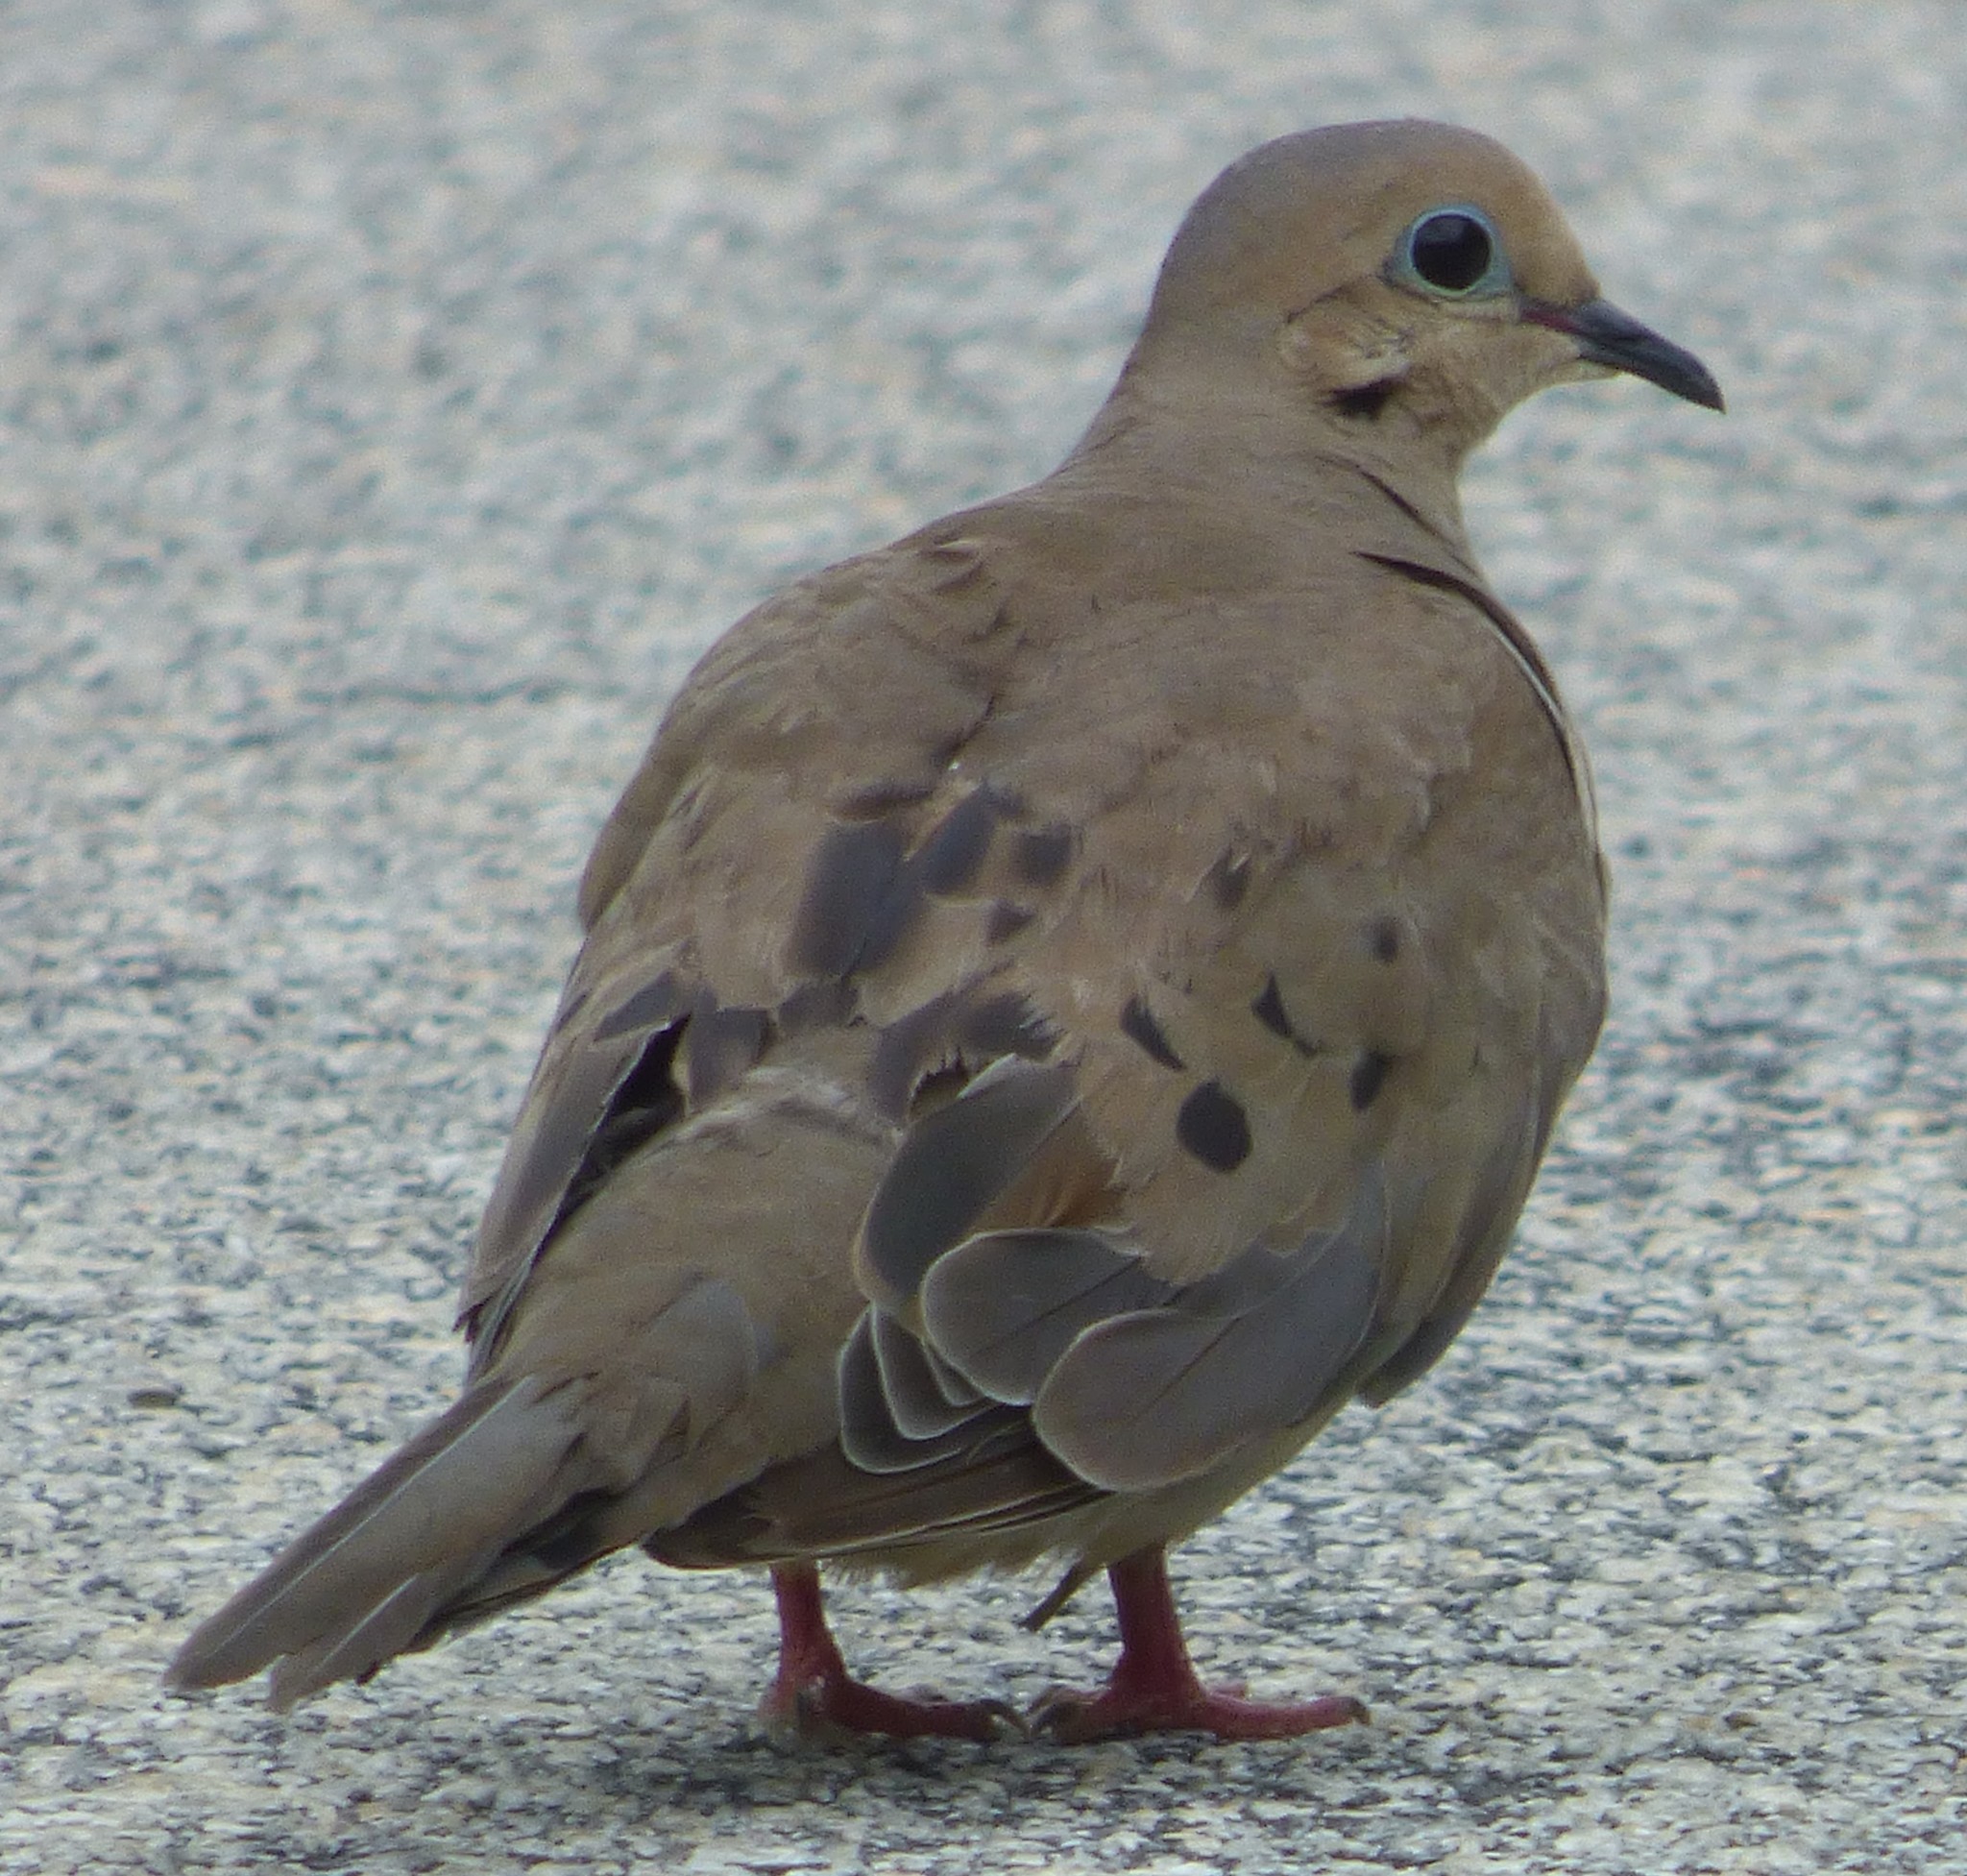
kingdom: Animalia
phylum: Chordata
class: Aves
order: Columbiformes
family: Columbidae
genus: Zenaida
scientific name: Zenaida macroura
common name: Mourning dove
